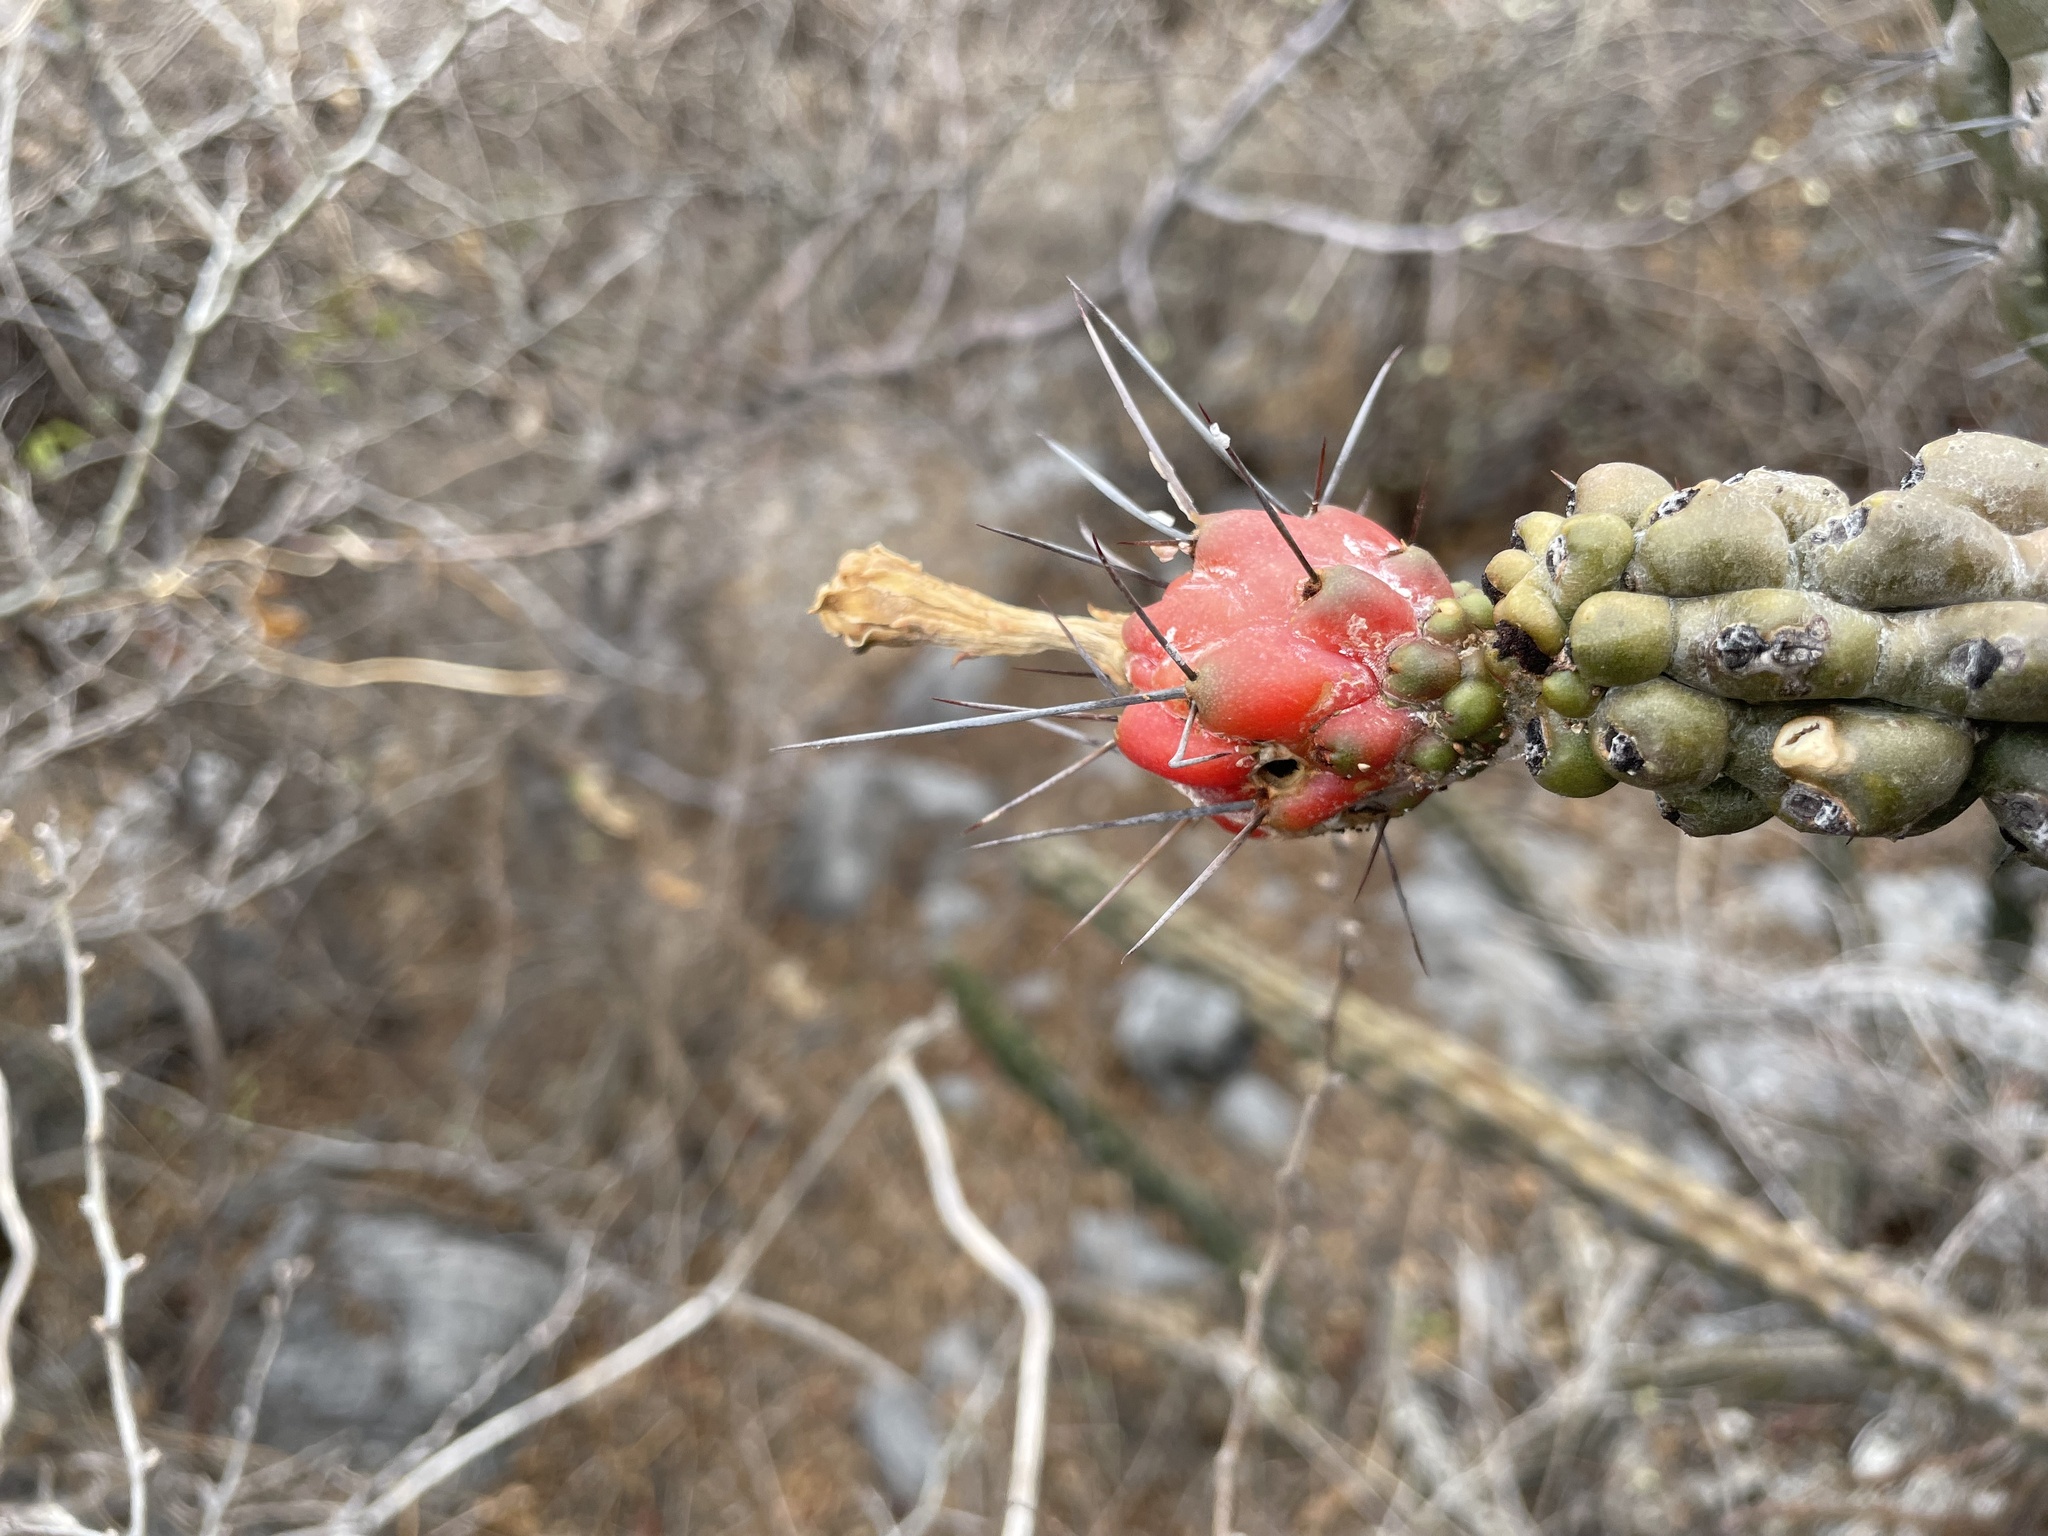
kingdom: Plantae
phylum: Tracheophyta
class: Magnoliopsida
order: Caryophyllales
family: Cactaceae
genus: Stenocereus
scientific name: Stenocereus beneckei
